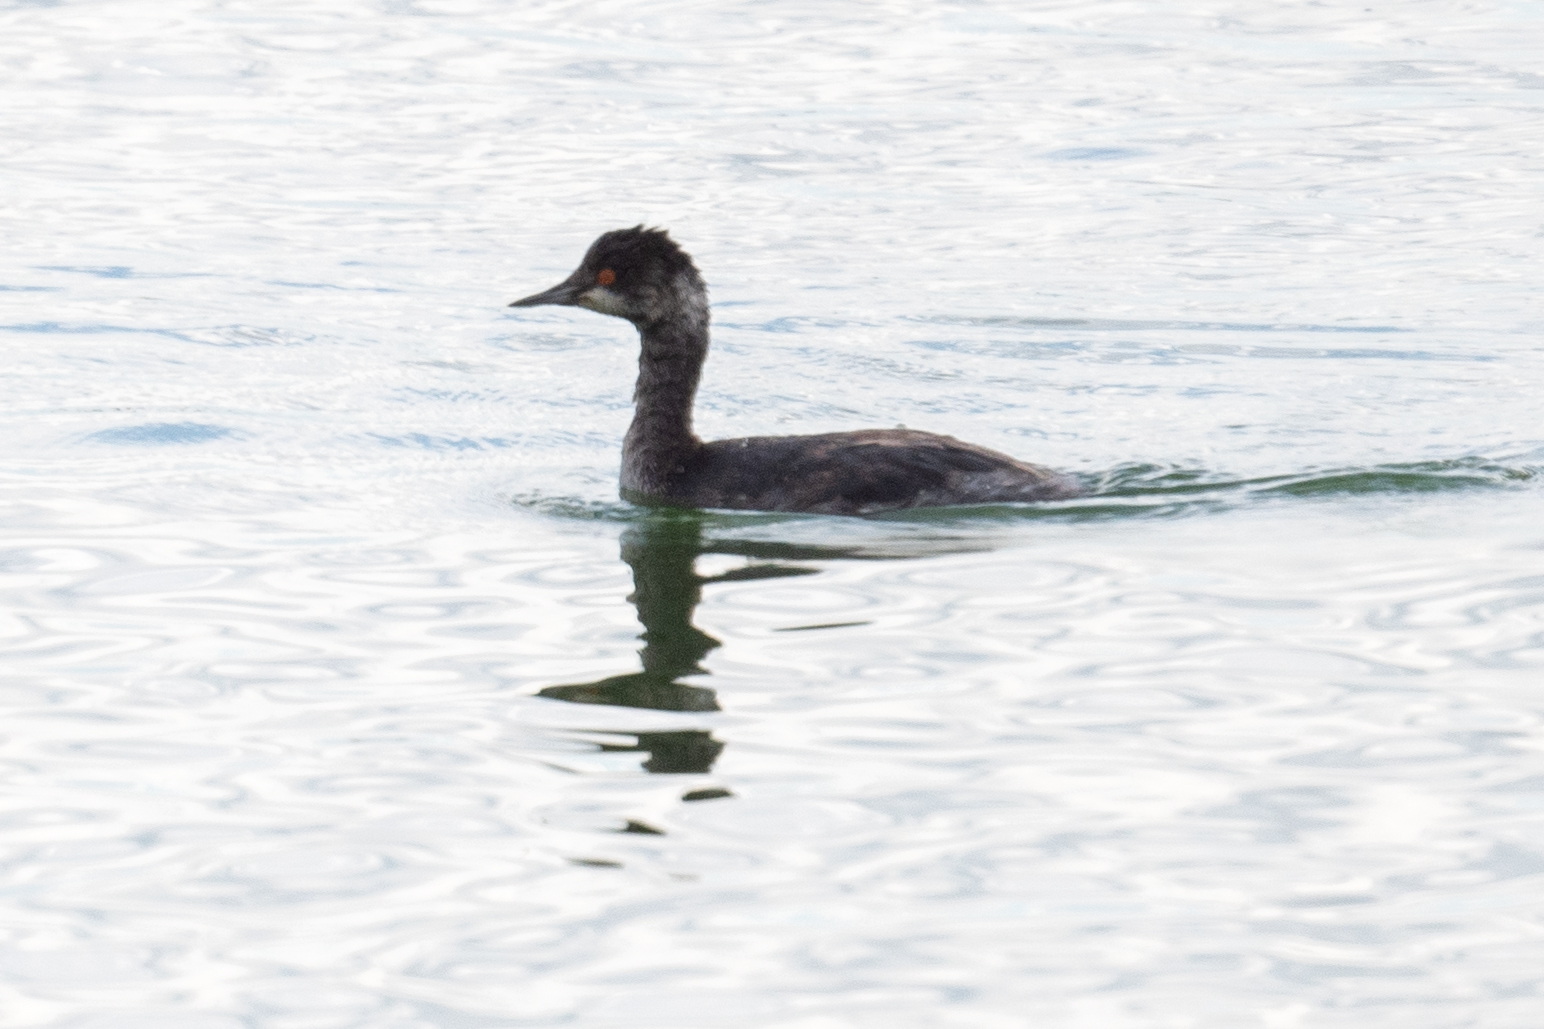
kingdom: Animalia
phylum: Chordata
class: Aves
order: Podicipediformes
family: Podicipedidae
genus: Podiceps
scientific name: Podiceps nigricollis
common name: Black-necked grebe
